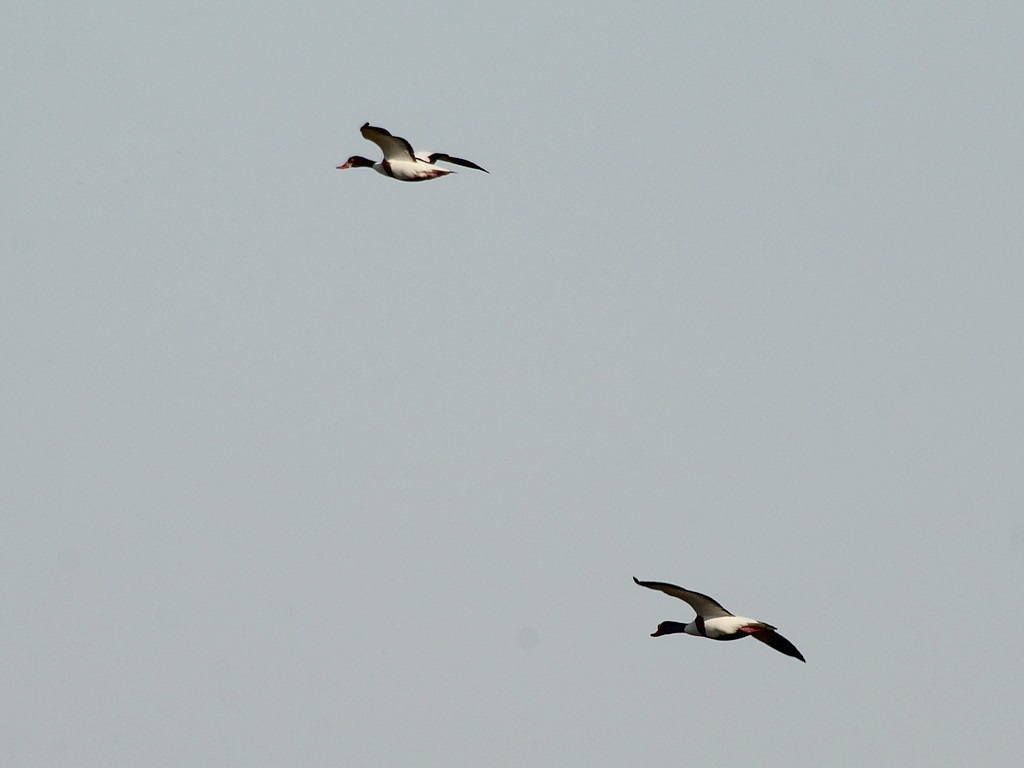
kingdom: Animalia
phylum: Chordata
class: Aves
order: Anseriformes
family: Anatidae
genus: Tadorna
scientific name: Tadorna tadorna
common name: Common shelduck
